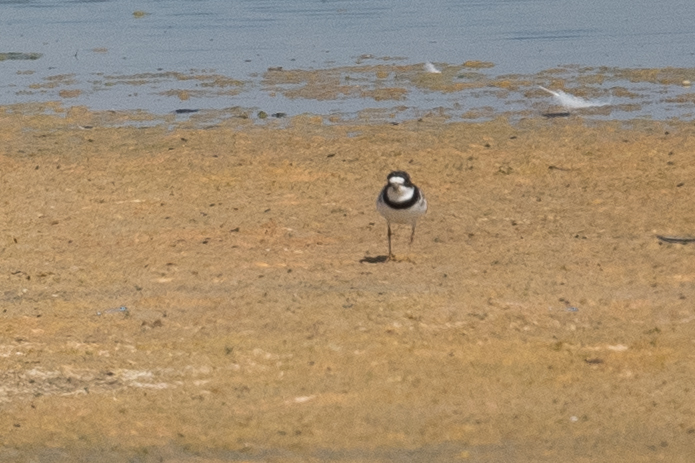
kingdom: Animalia
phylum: Chordata
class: Aves
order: Charadriiformes
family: Charadriidae
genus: Charadrius
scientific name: Charadrius semipalmatus
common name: Semipalmated plover
